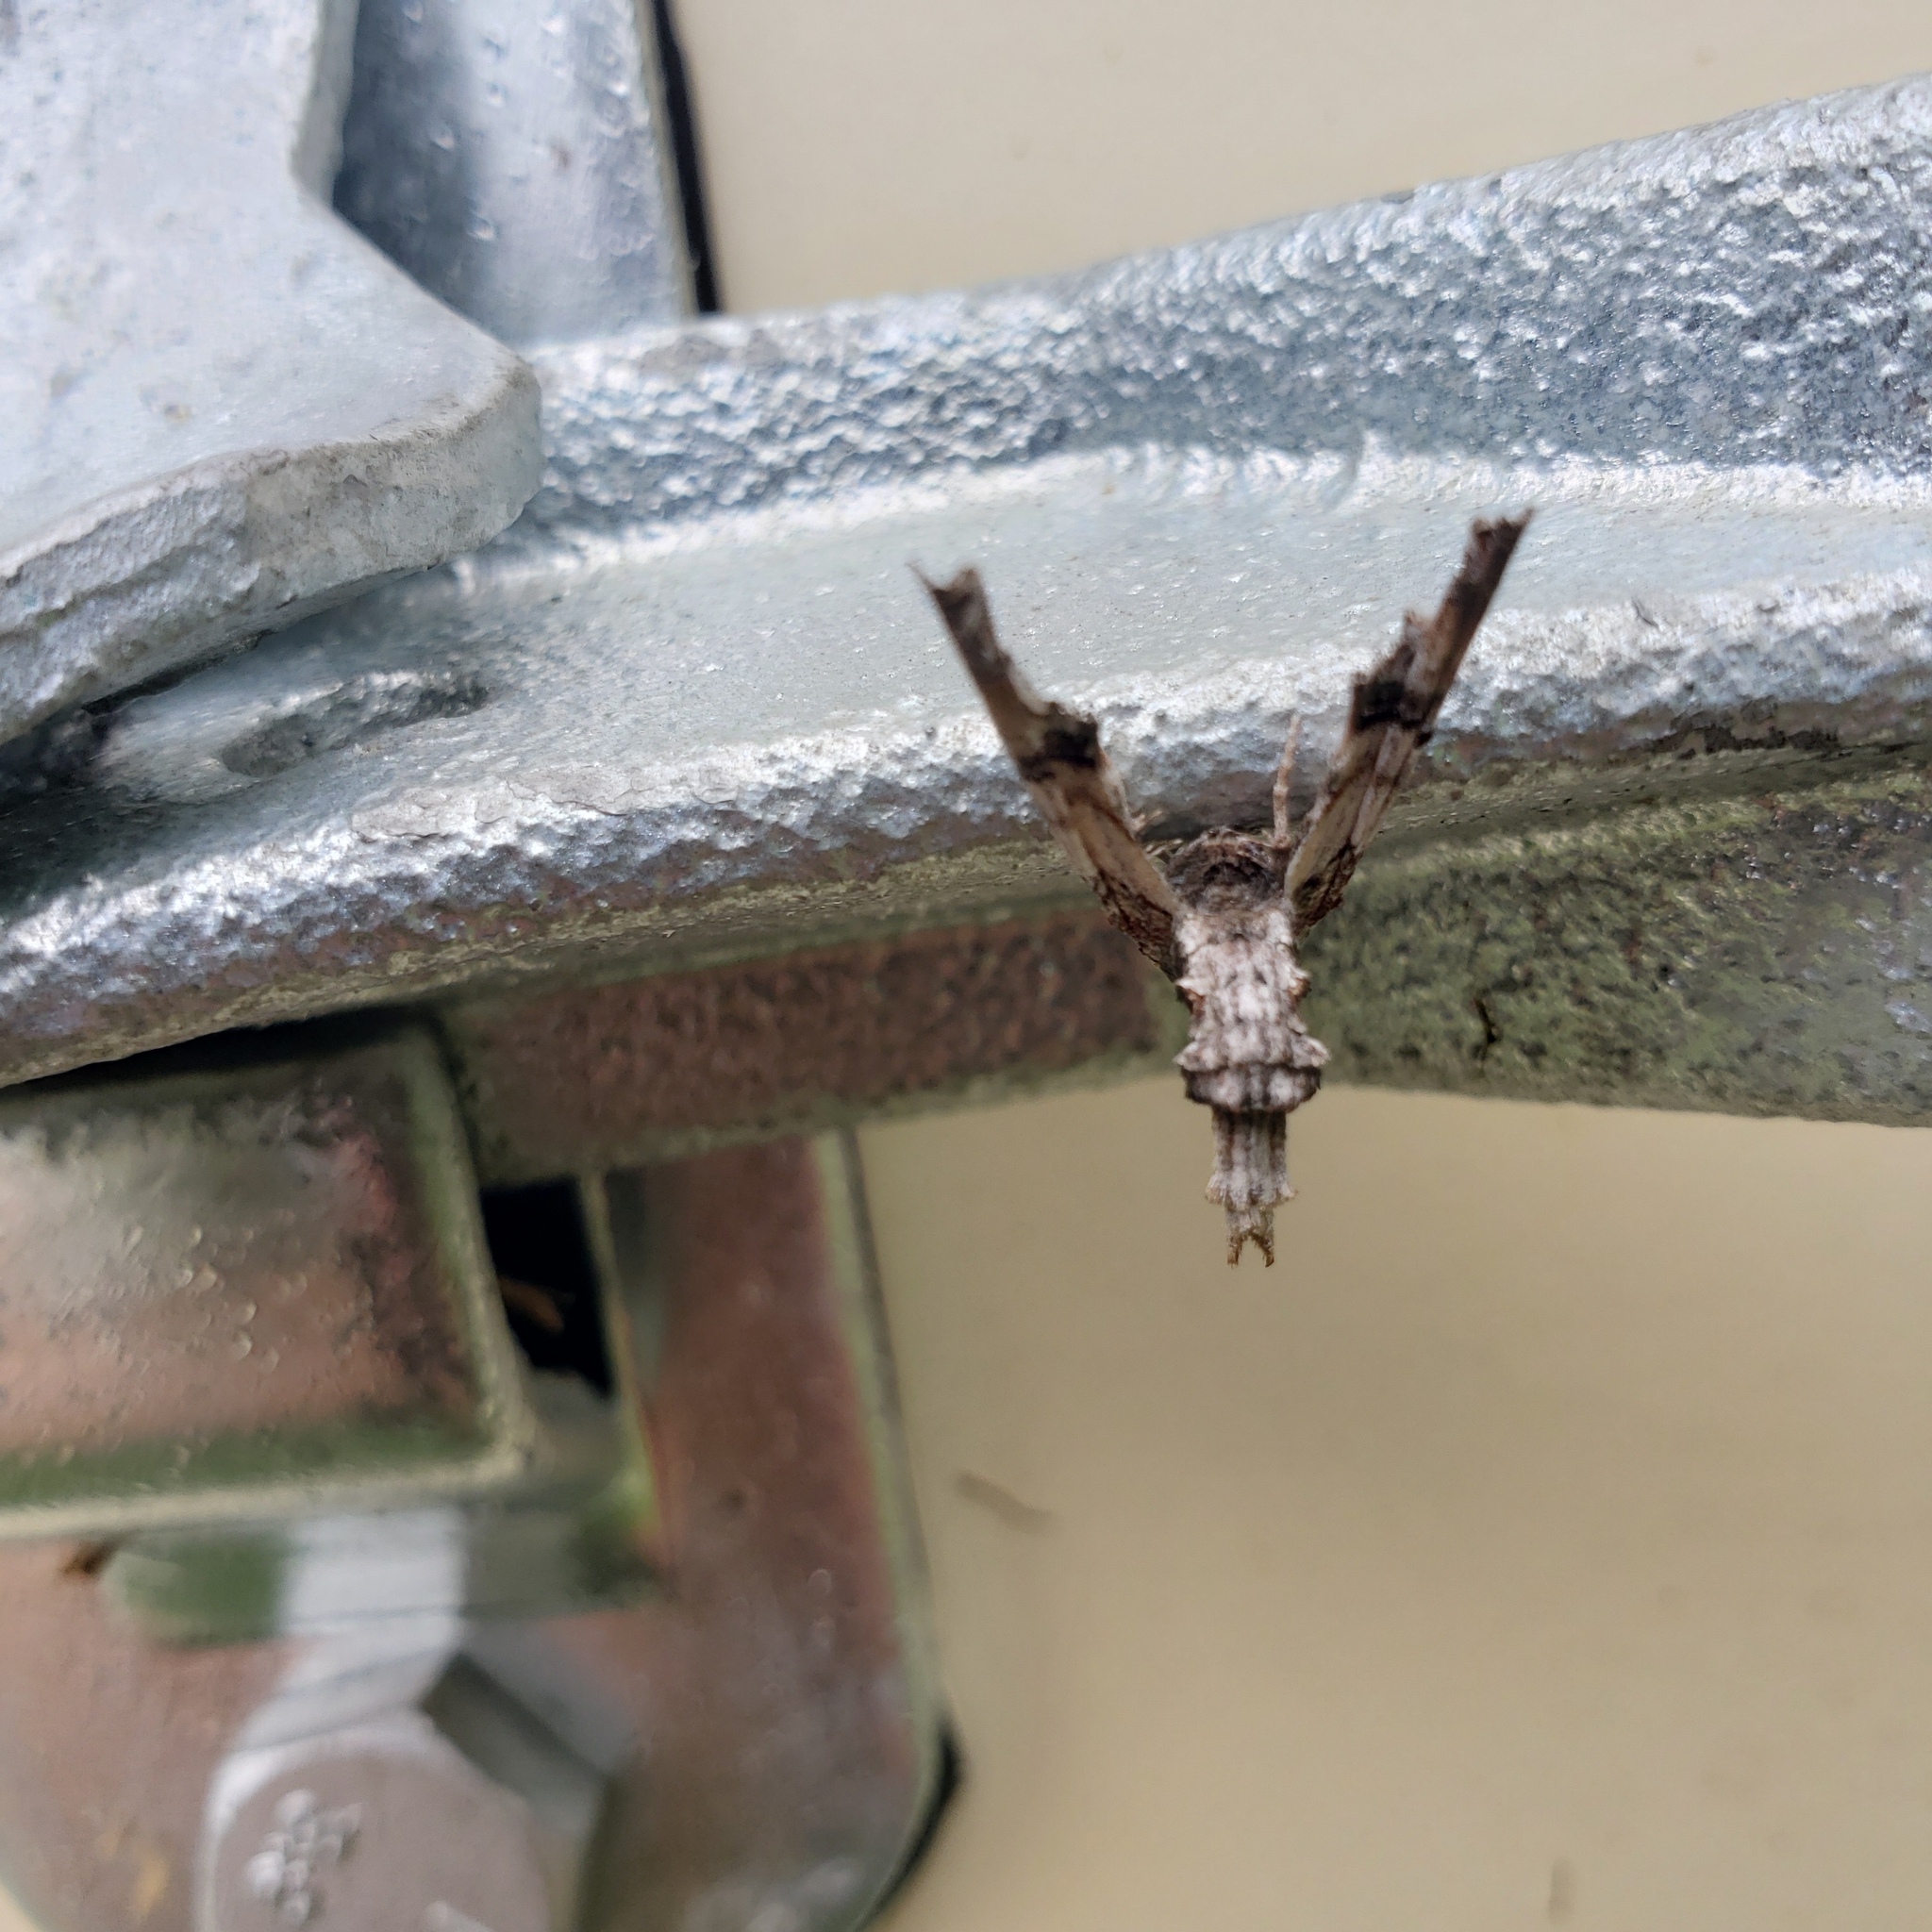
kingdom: Animalia
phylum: Arthropoda
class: Insecta
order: Lepidoptera
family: Euteliidae
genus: Marathyssa
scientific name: Marathyssa inficita
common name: Dark marathyssa moth
